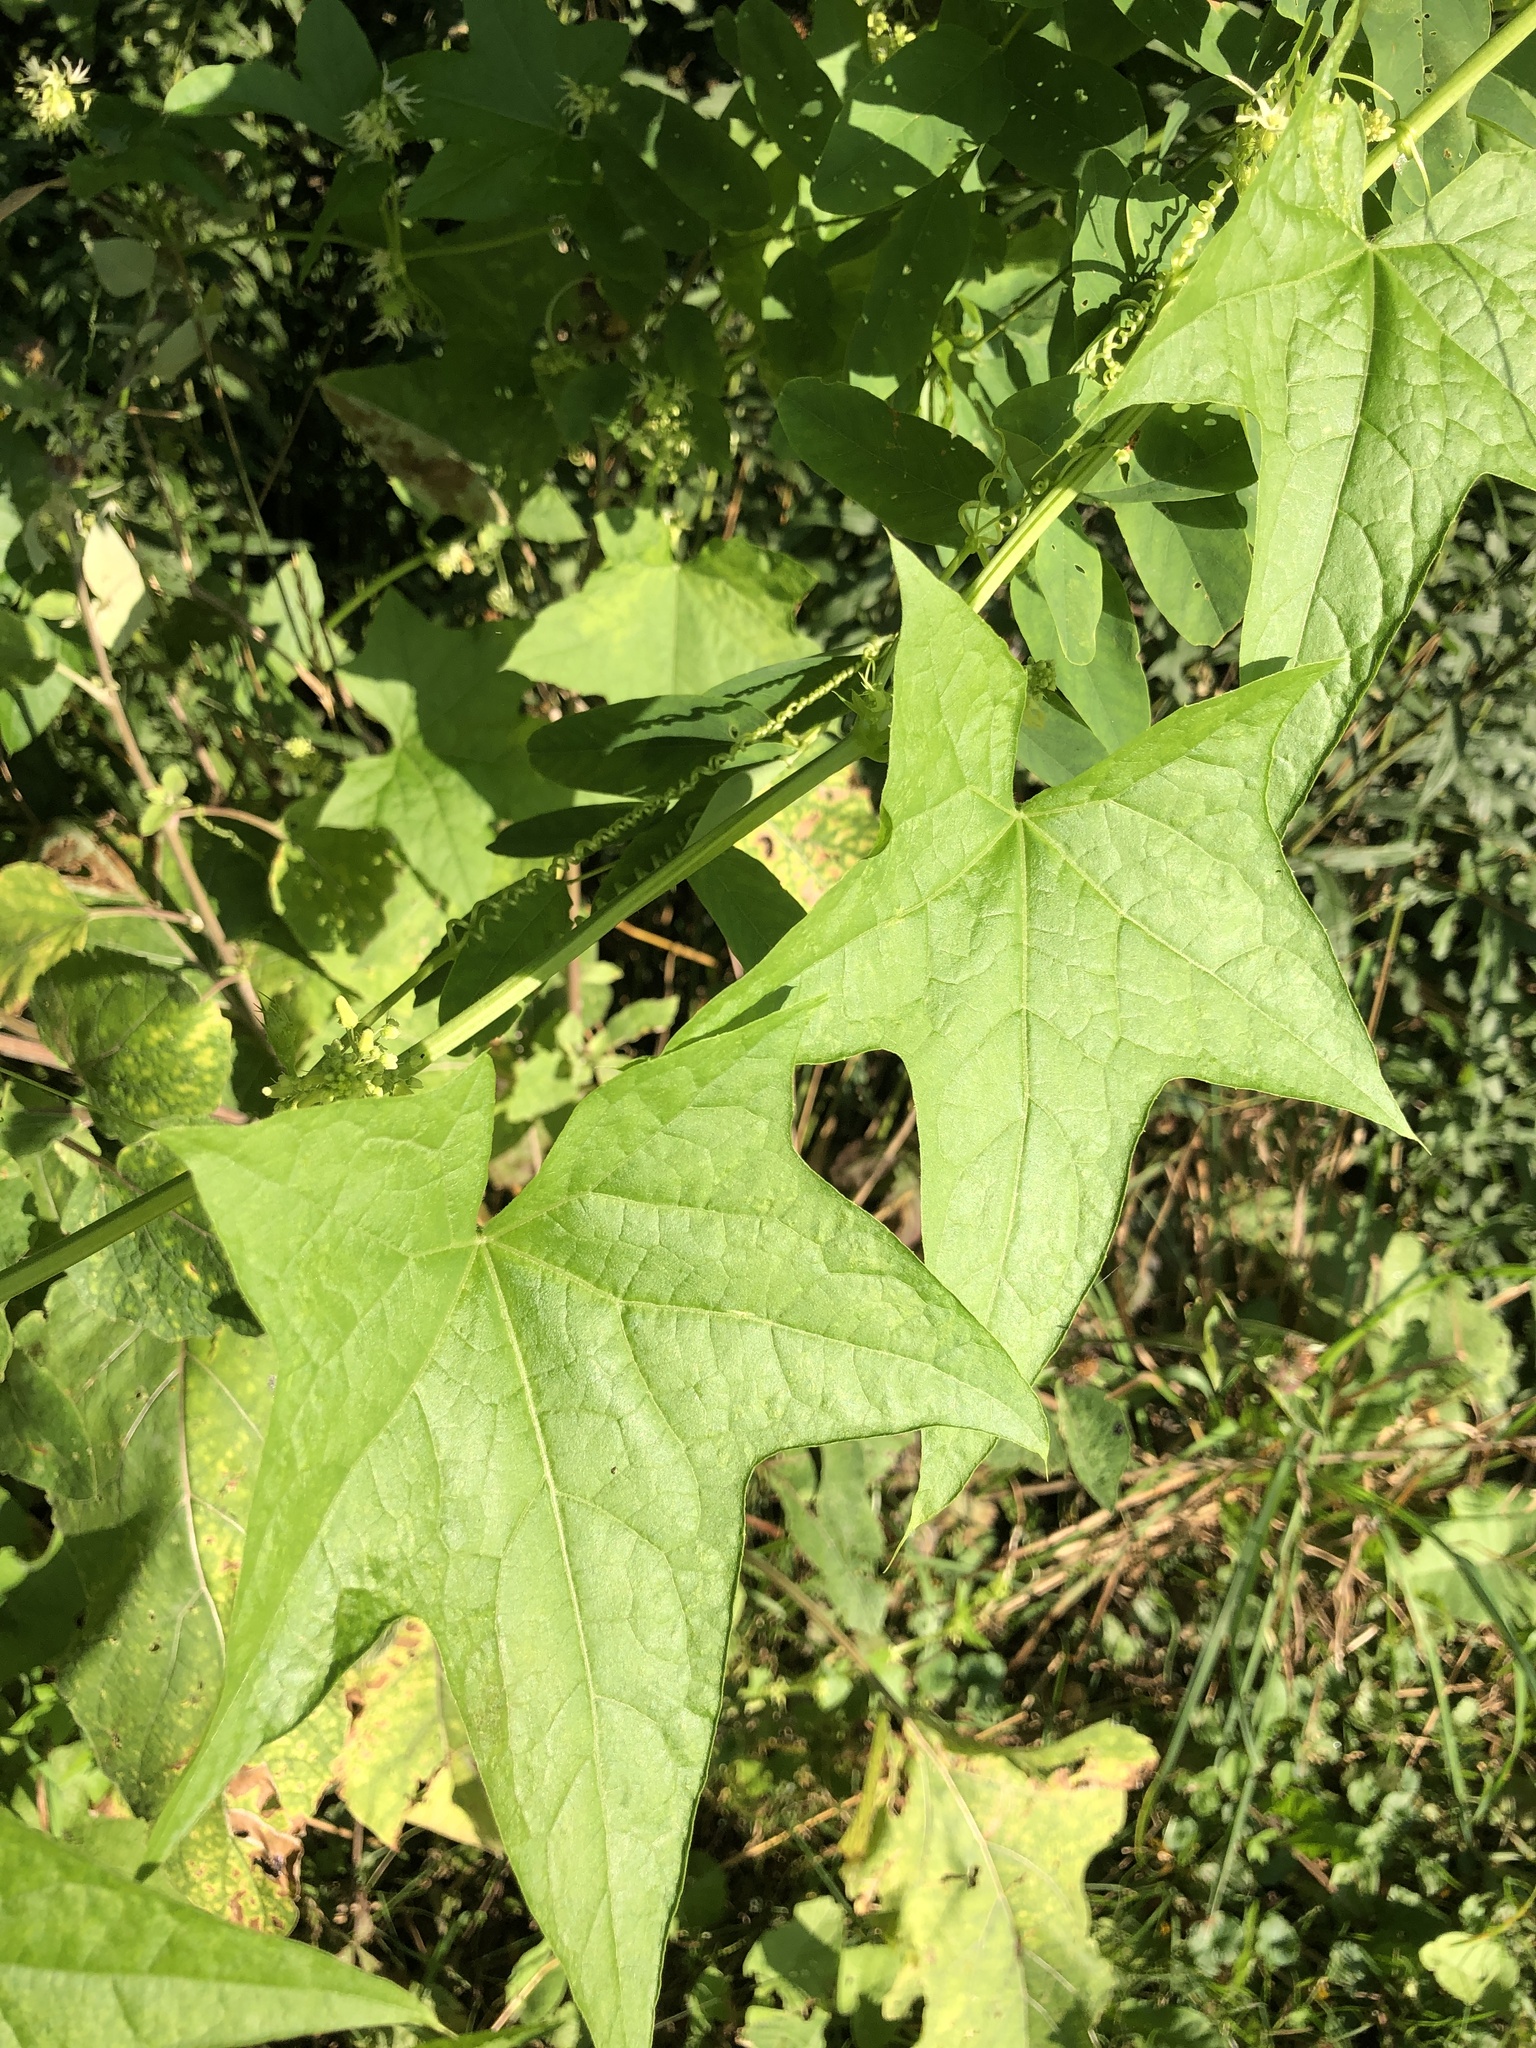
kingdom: Plantae
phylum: Tracheophyta
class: Magnoliopsida
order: Cucurbitales
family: Cucurbitaceae
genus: Echinocystis
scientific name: Echinocystis lobata
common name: Wild cucumber
